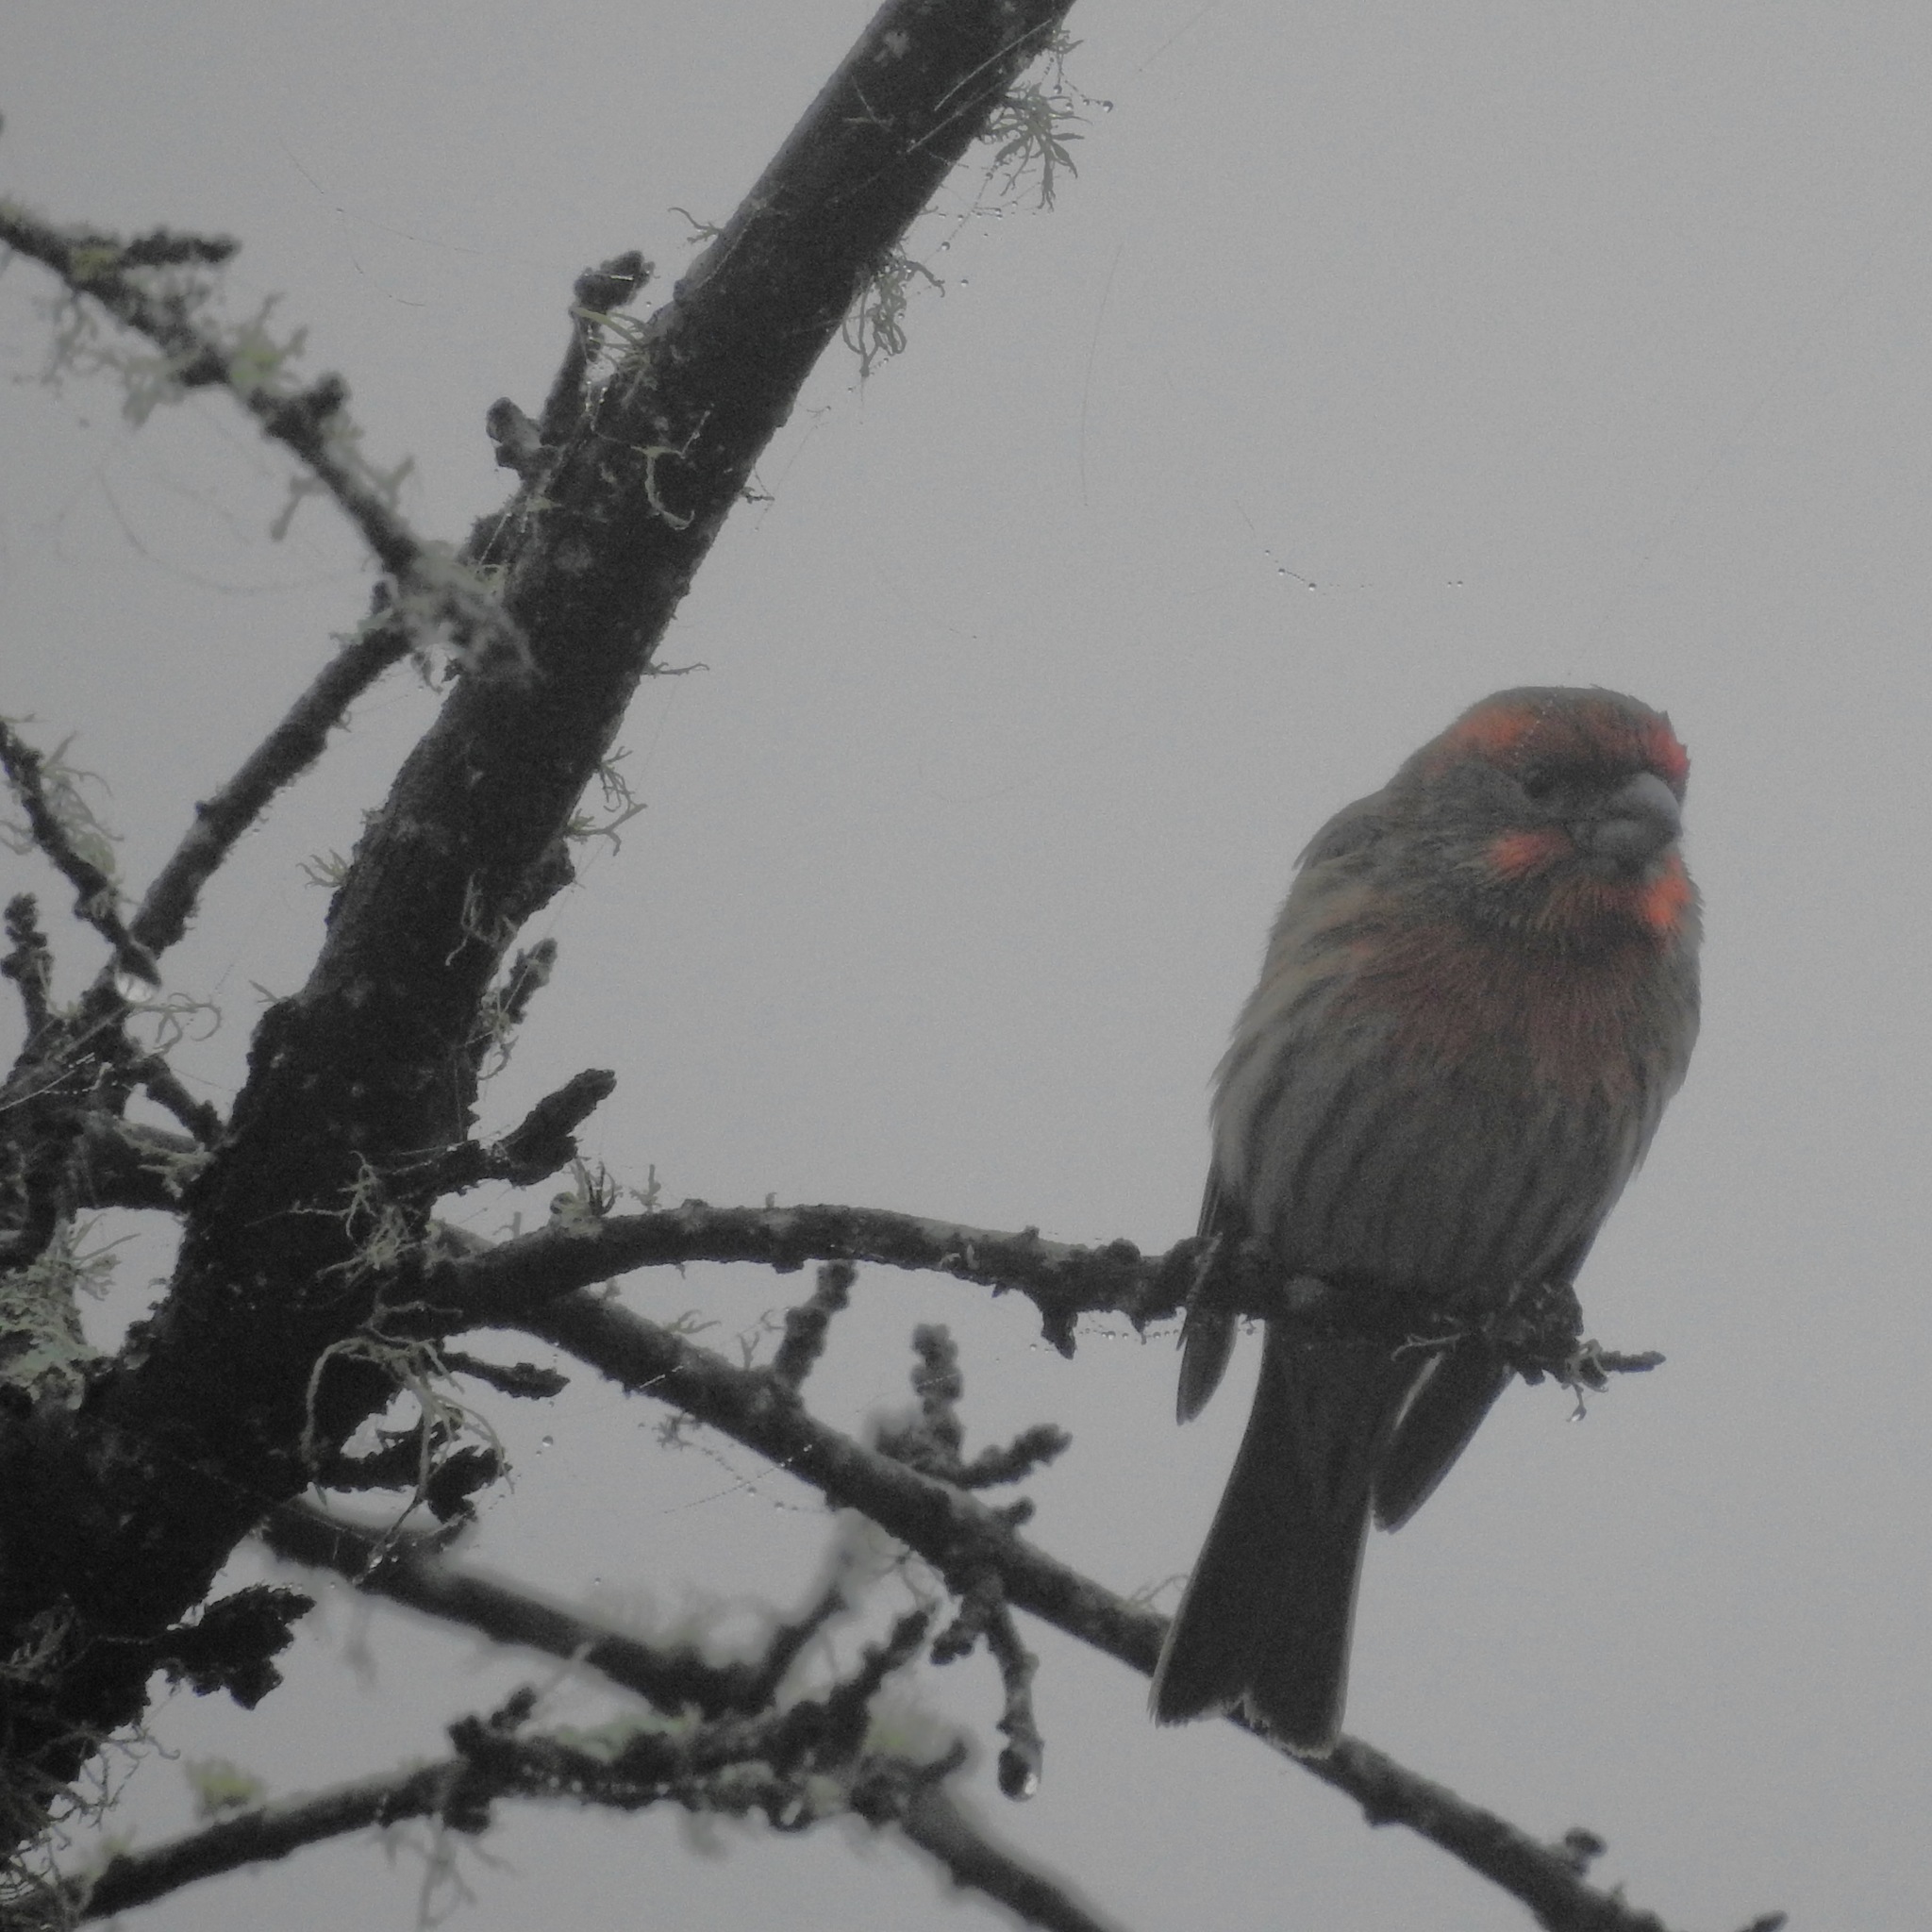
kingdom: Animalia
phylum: Chordata
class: Aves
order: Passeriformes
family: Fringillidae
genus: Haemorhous
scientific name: Haemorhous mexicanus
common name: House finch
